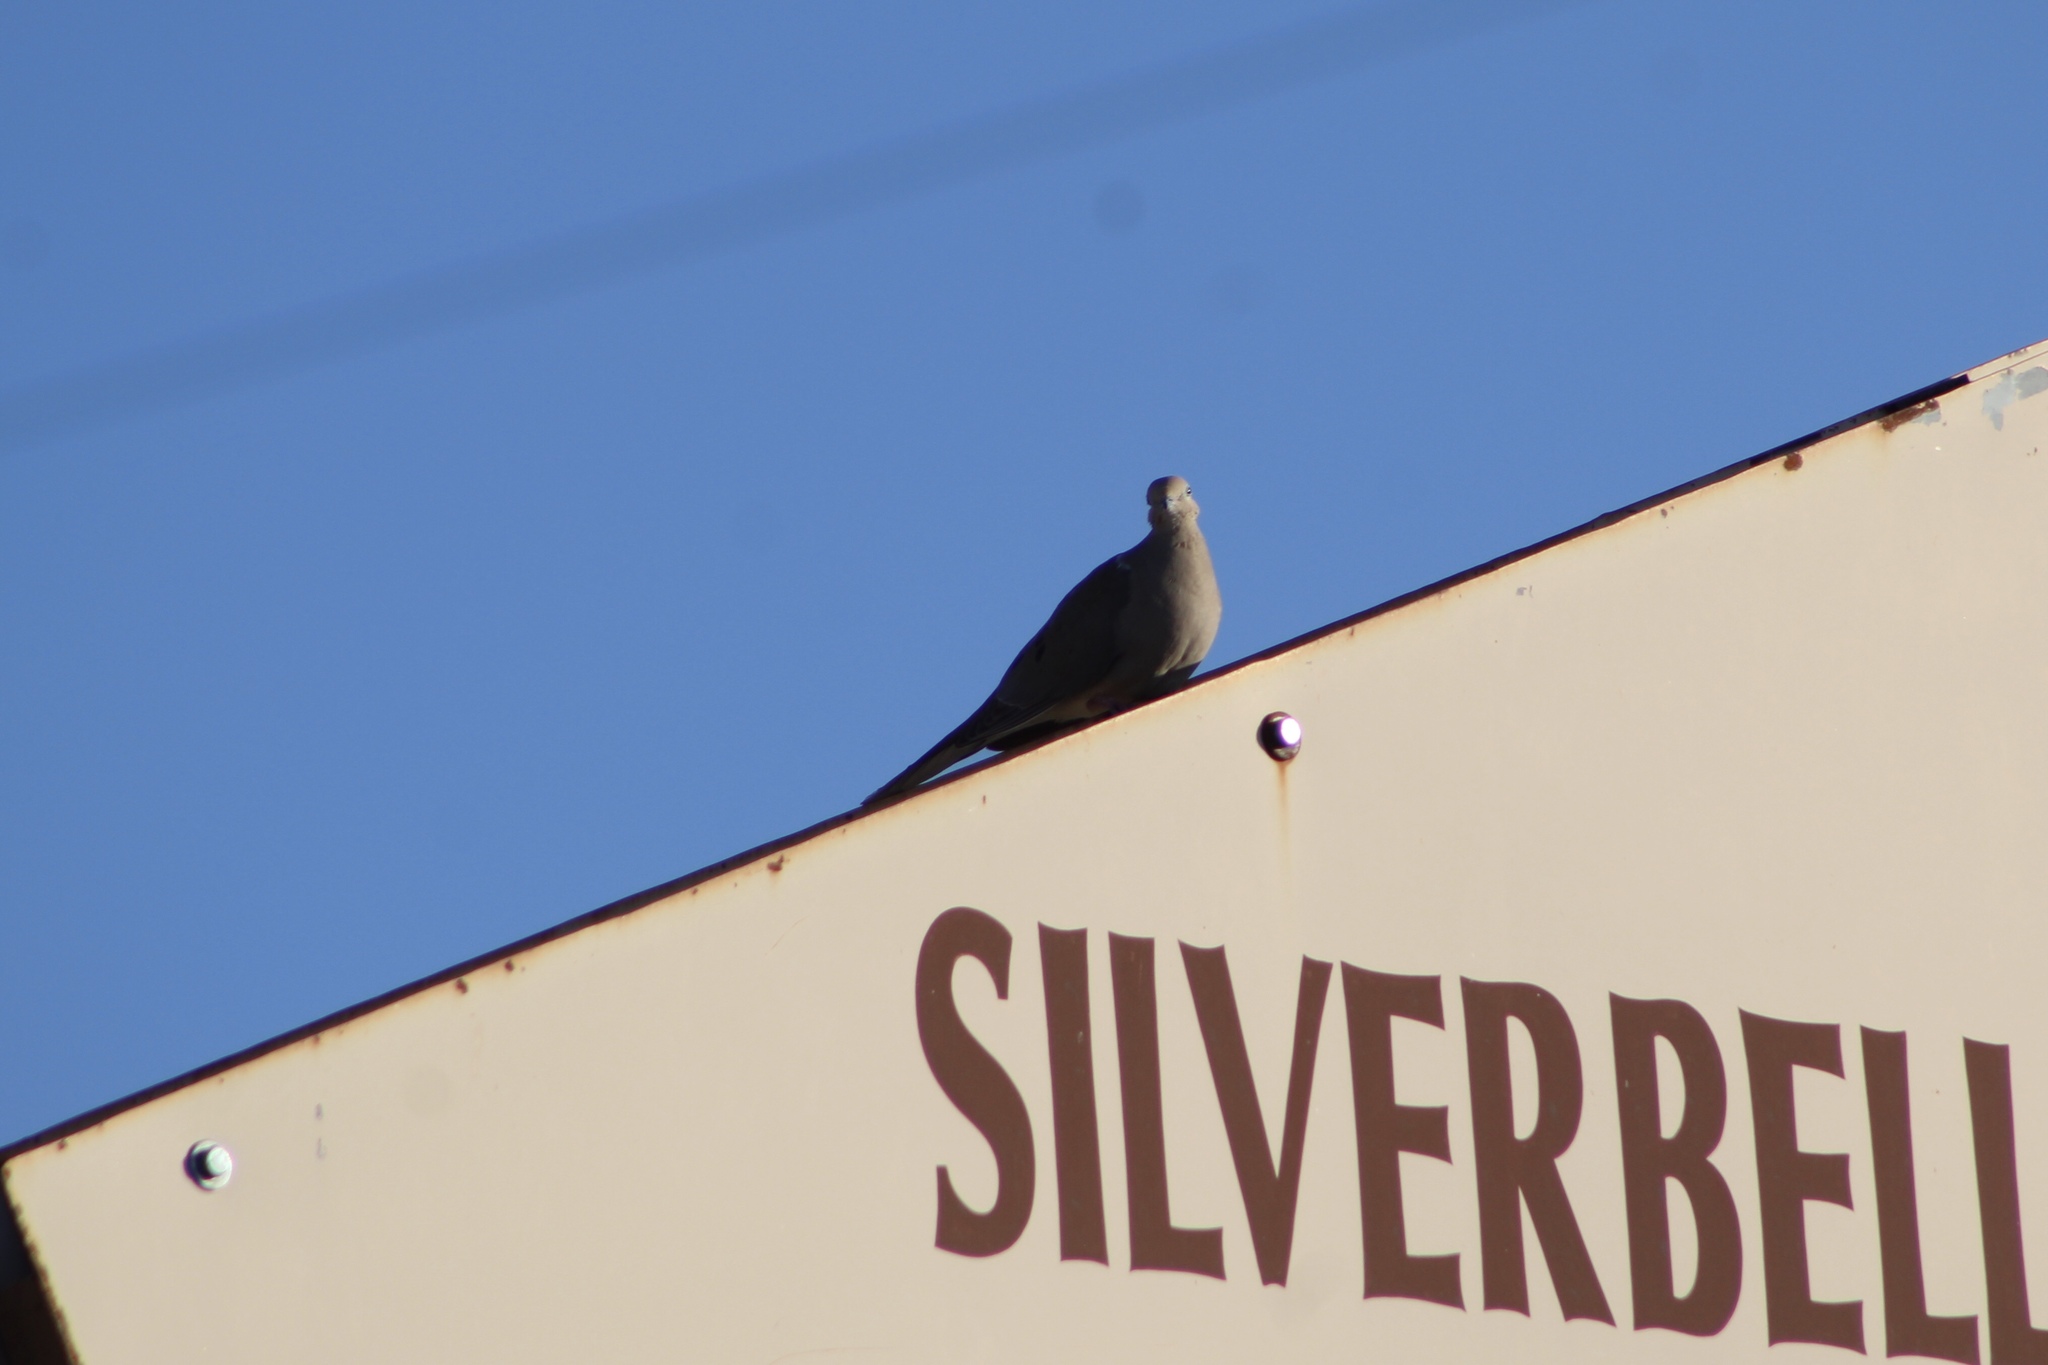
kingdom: Animalia
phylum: Chordata
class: Aves
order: Columbiformes
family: Columbidae
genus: Zenaida
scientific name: Zenaida macroura
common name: Mourning dove
